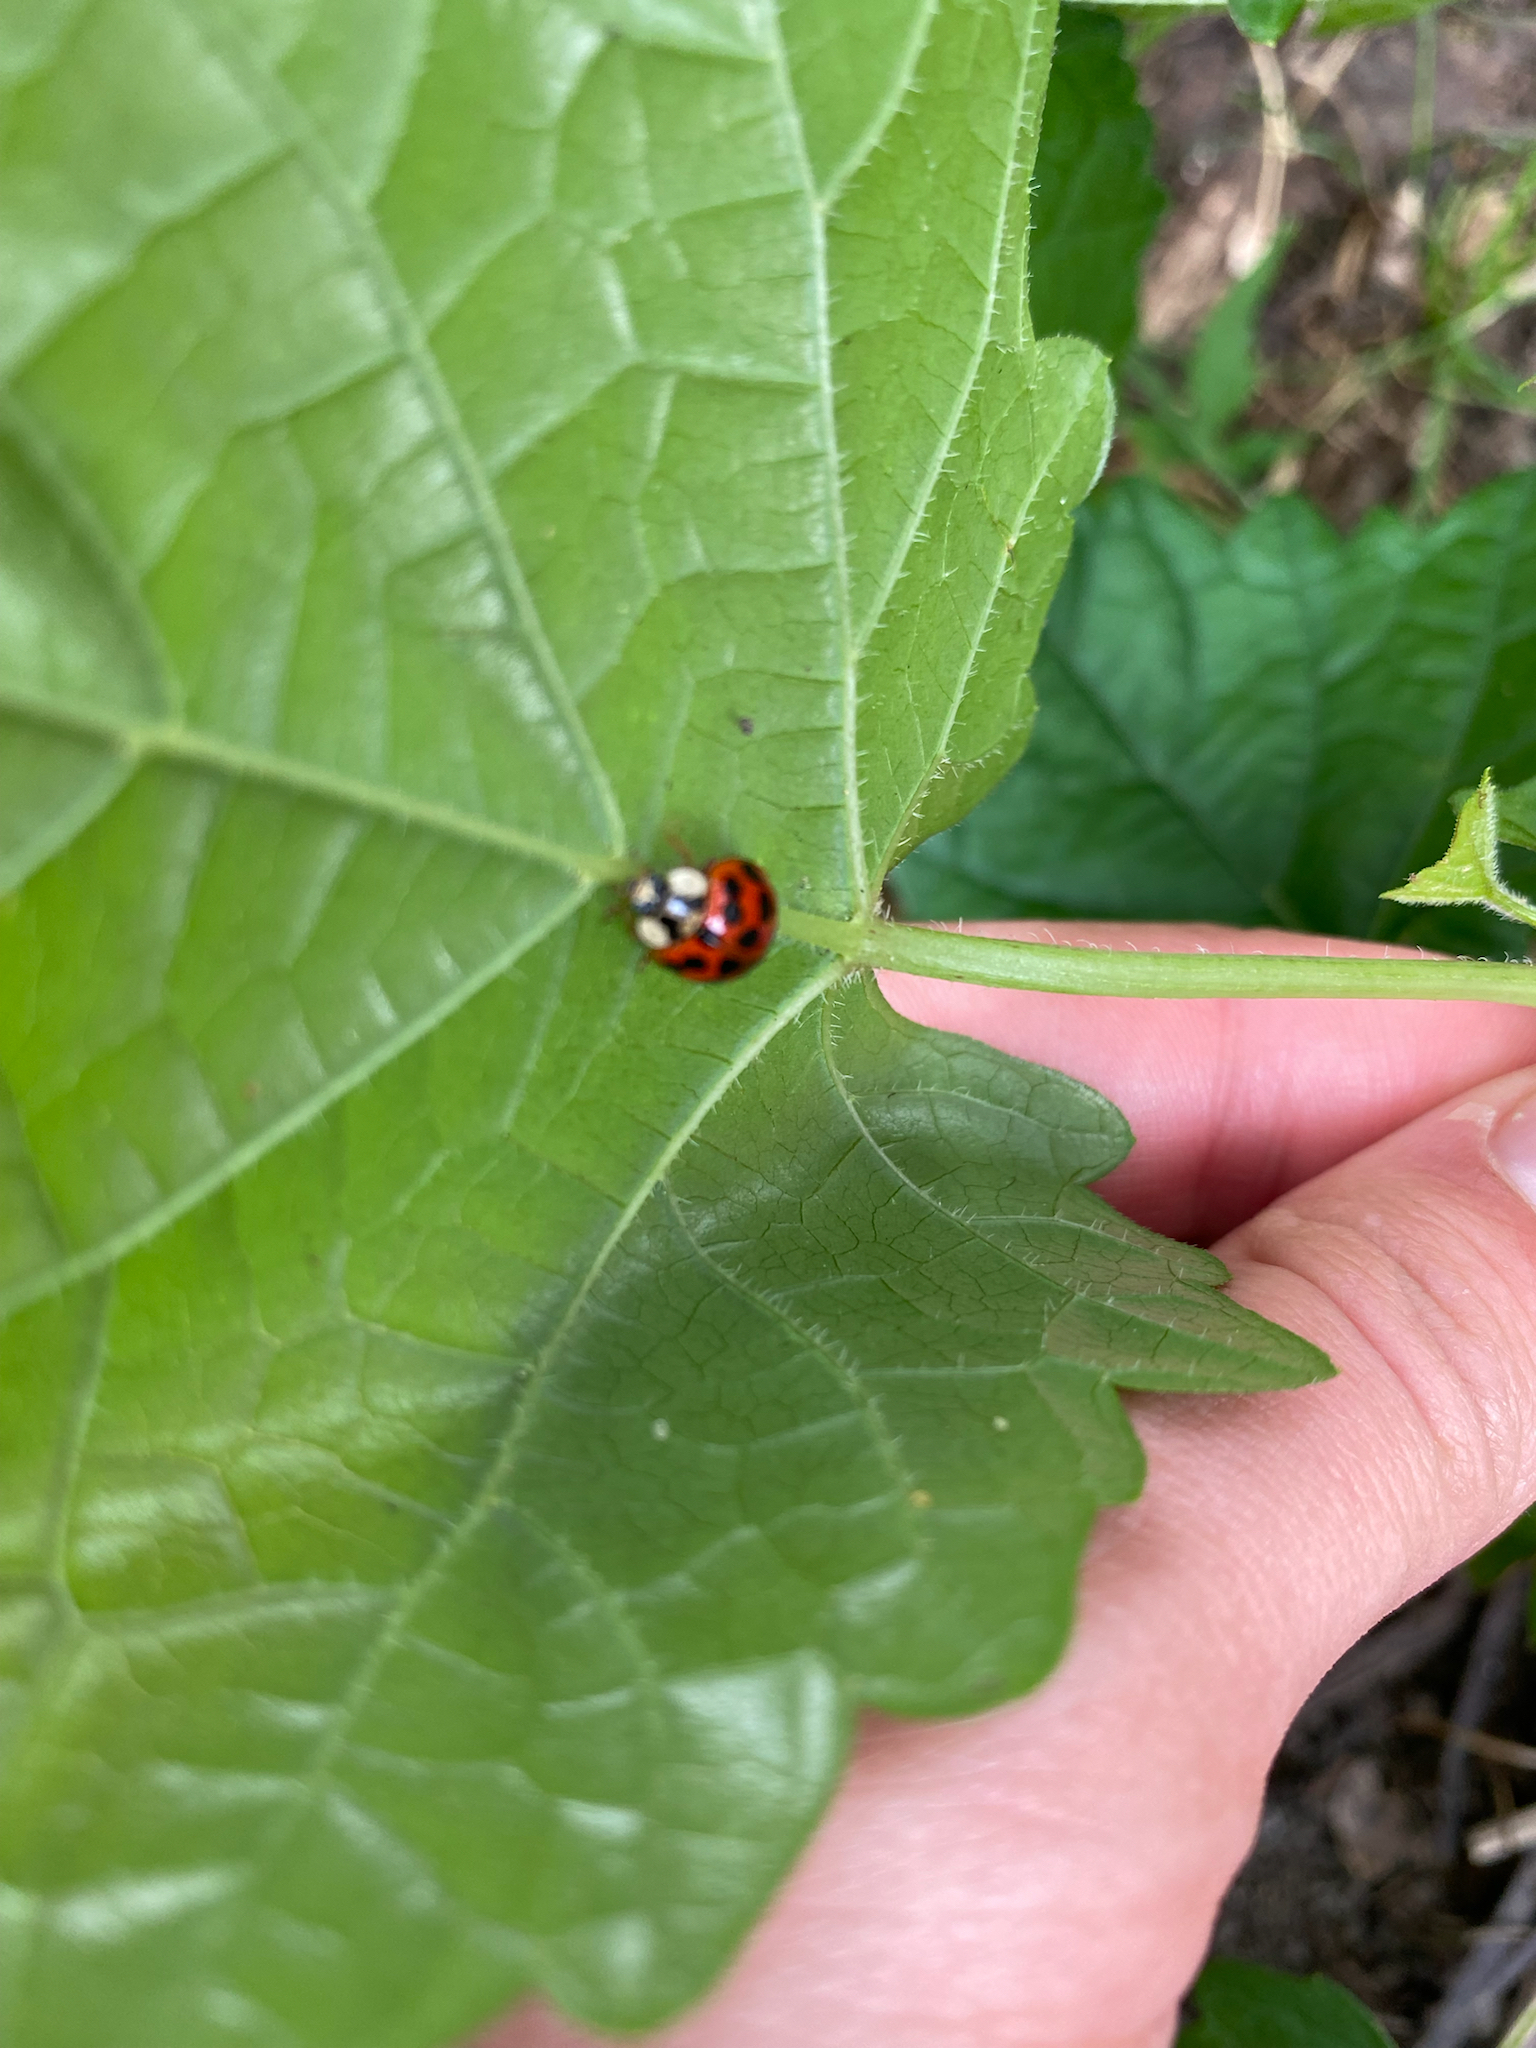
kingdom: Animalia
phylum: Arthropoda
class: Insecta
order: Coleoptera
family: Coccinellidae
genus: Harmonia
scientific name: Harmonia axyridis
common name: Harlequin ladybird
